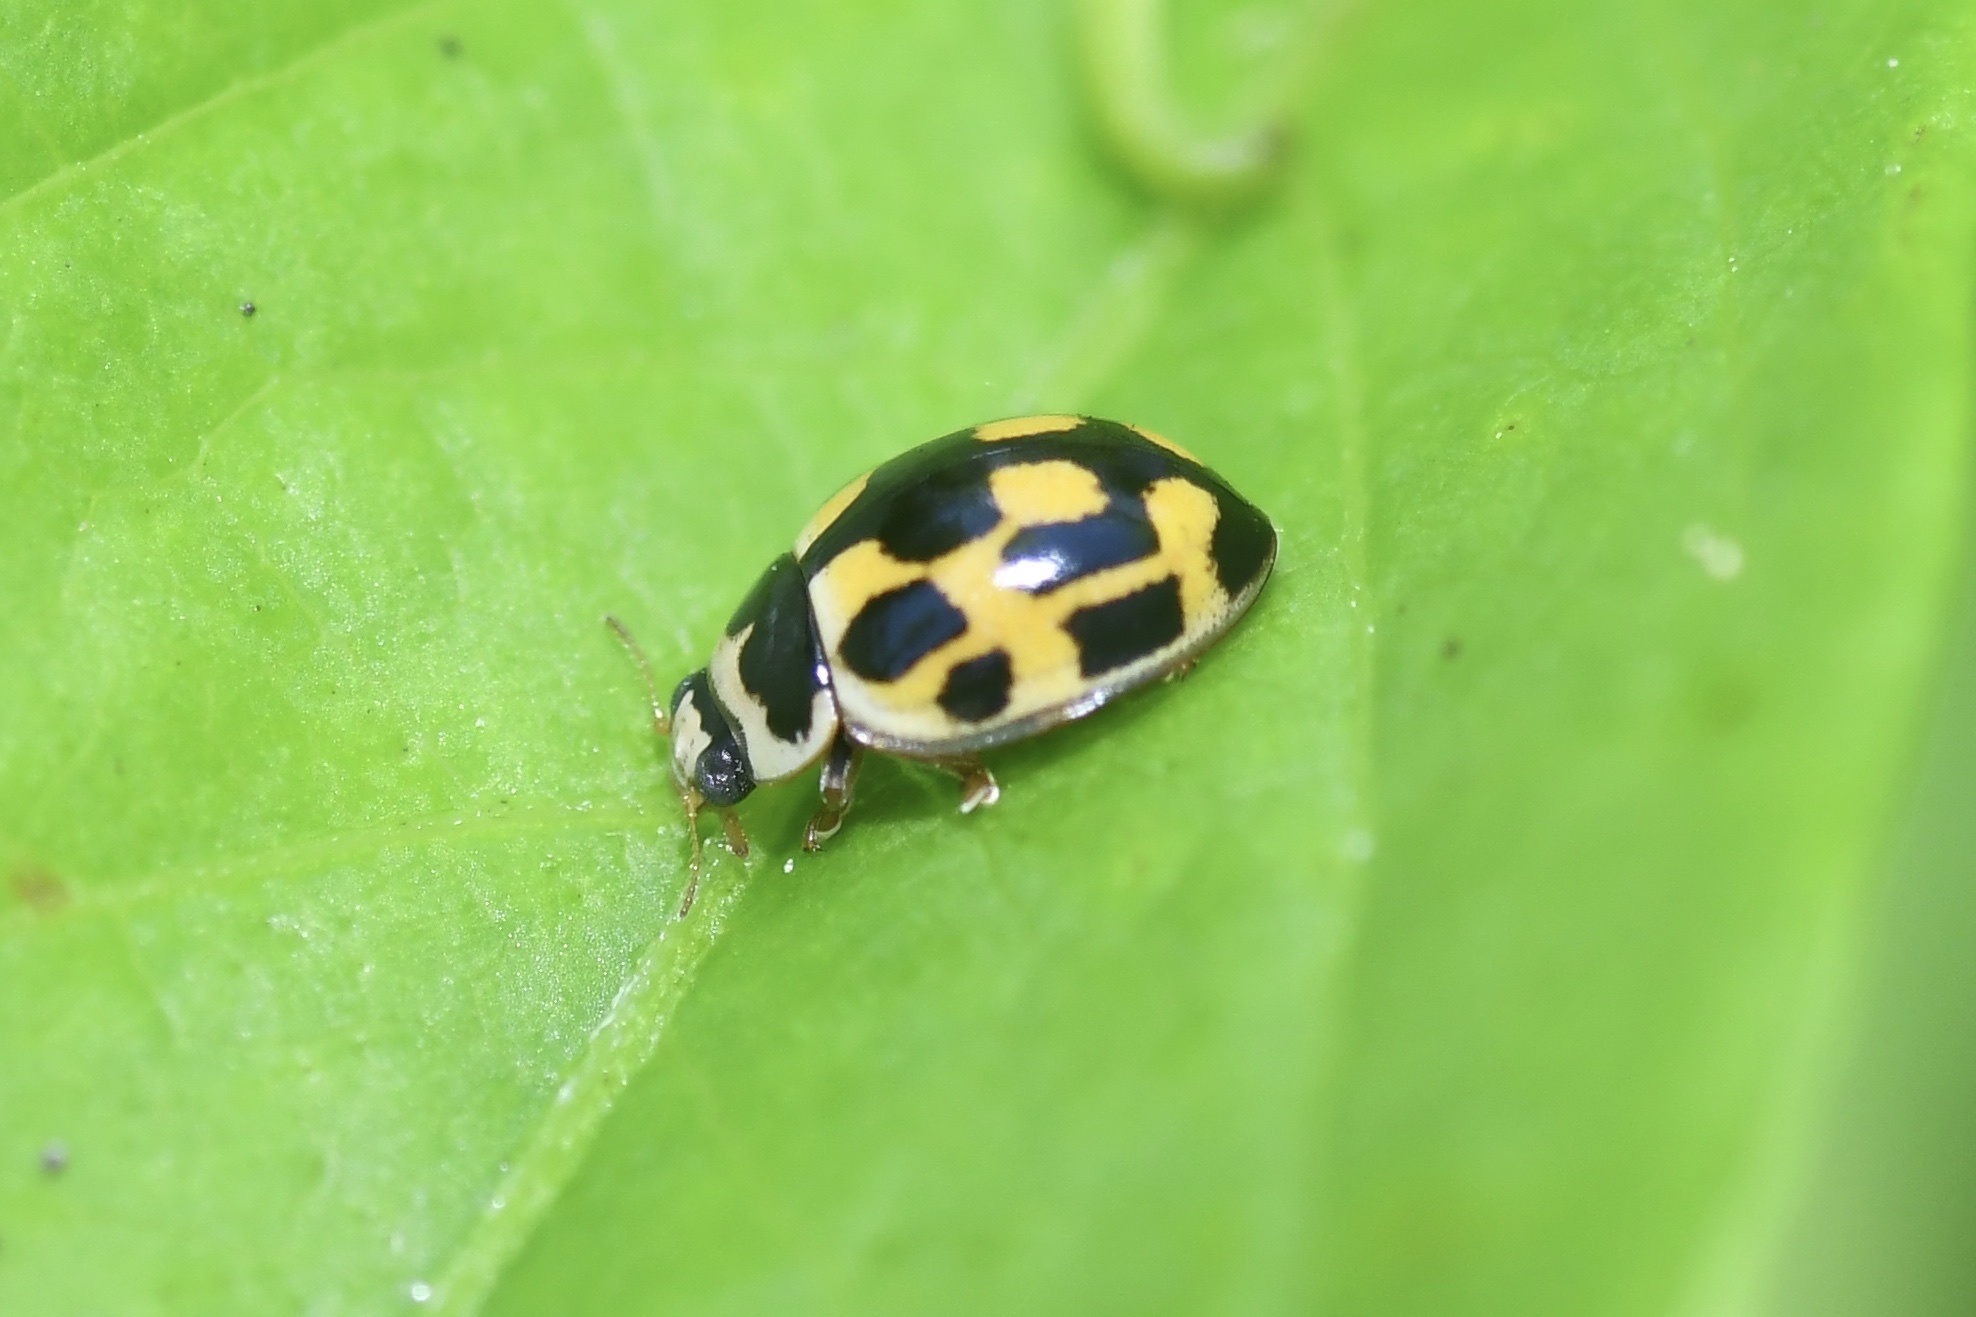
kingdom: Animalia
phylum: Arthropoda
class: Insecta
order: Coleoptera
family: Coccinellidae
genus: Propylaea
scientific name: Propylaea quatuordecimpunctata
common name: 14-spotted ladybird beetle
